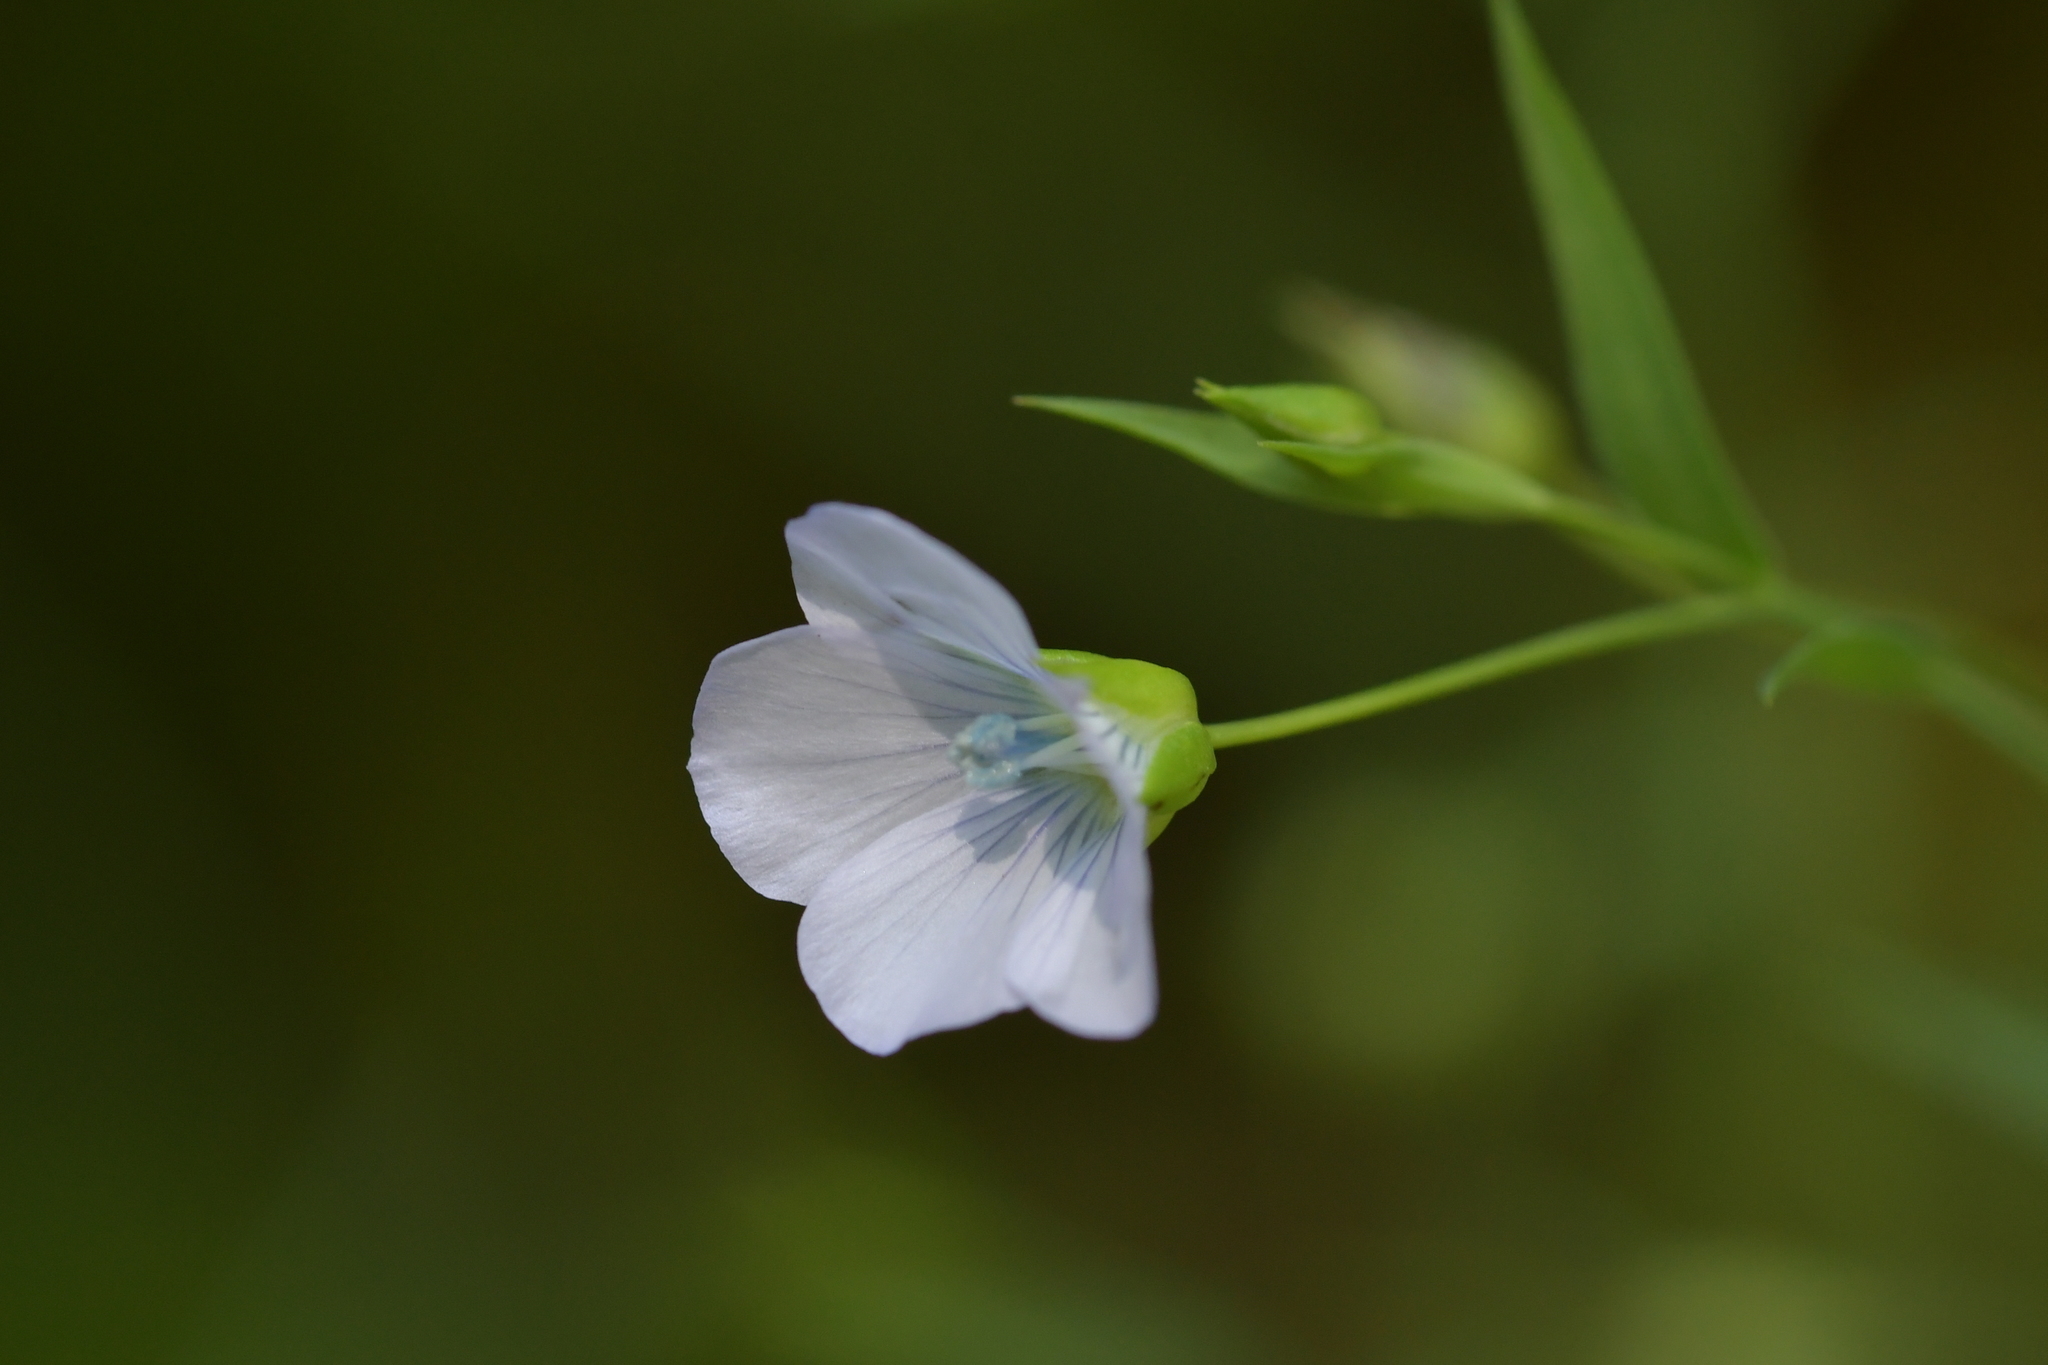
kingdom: Plantae
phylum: Tracheophyta
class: Magnoliopsida
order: Malpighiales
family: Linaceae
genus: Linum
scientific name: Linum bienne
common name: Pale flax
